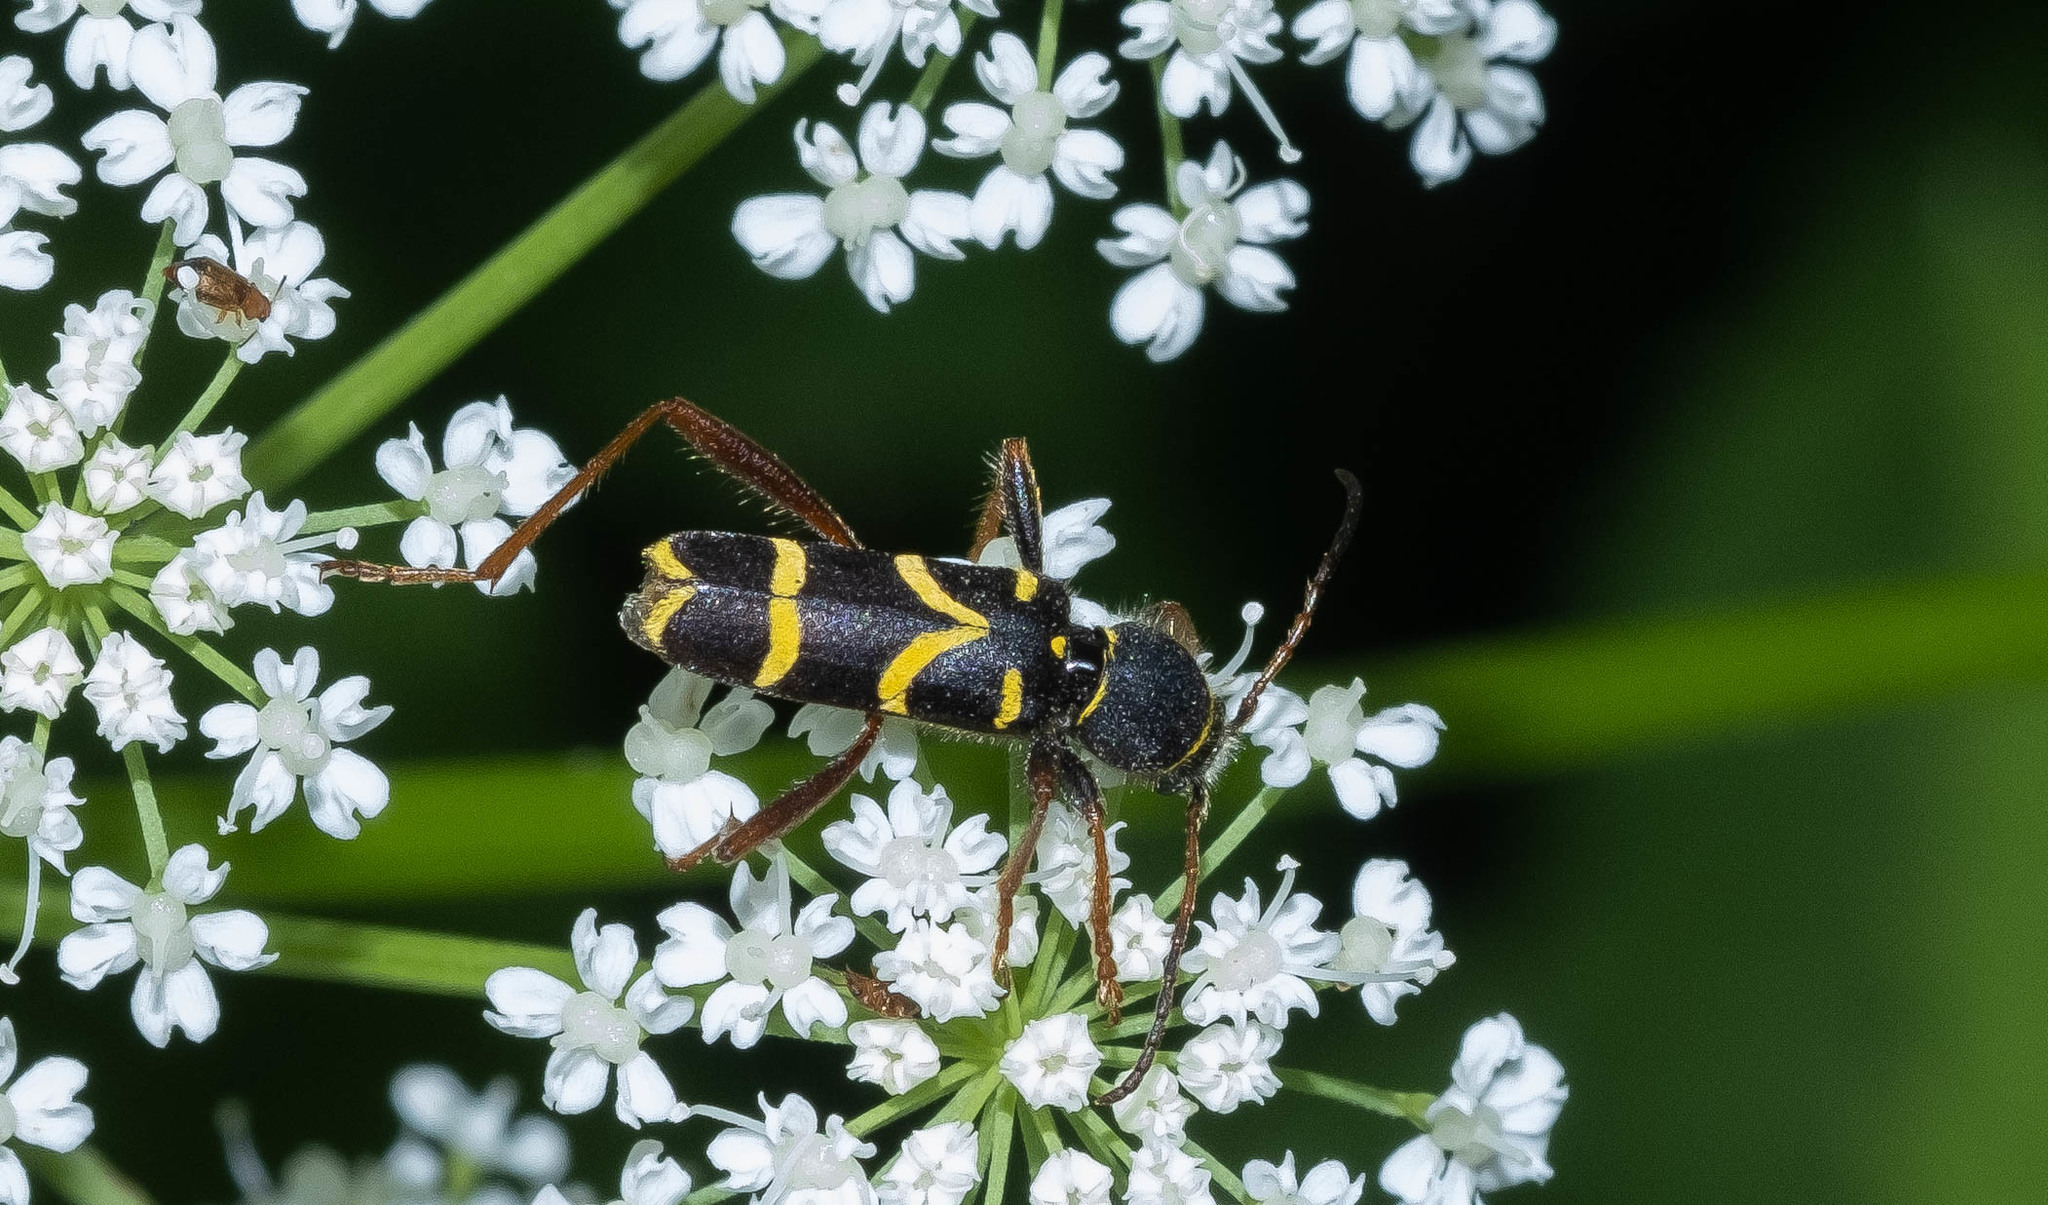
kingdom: Animalia
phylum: Arthropoda
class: Insecta
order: Coleoptera
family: Cerambycidae
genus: Clytus
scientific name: Clytus arietis
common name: Wasp beetle
